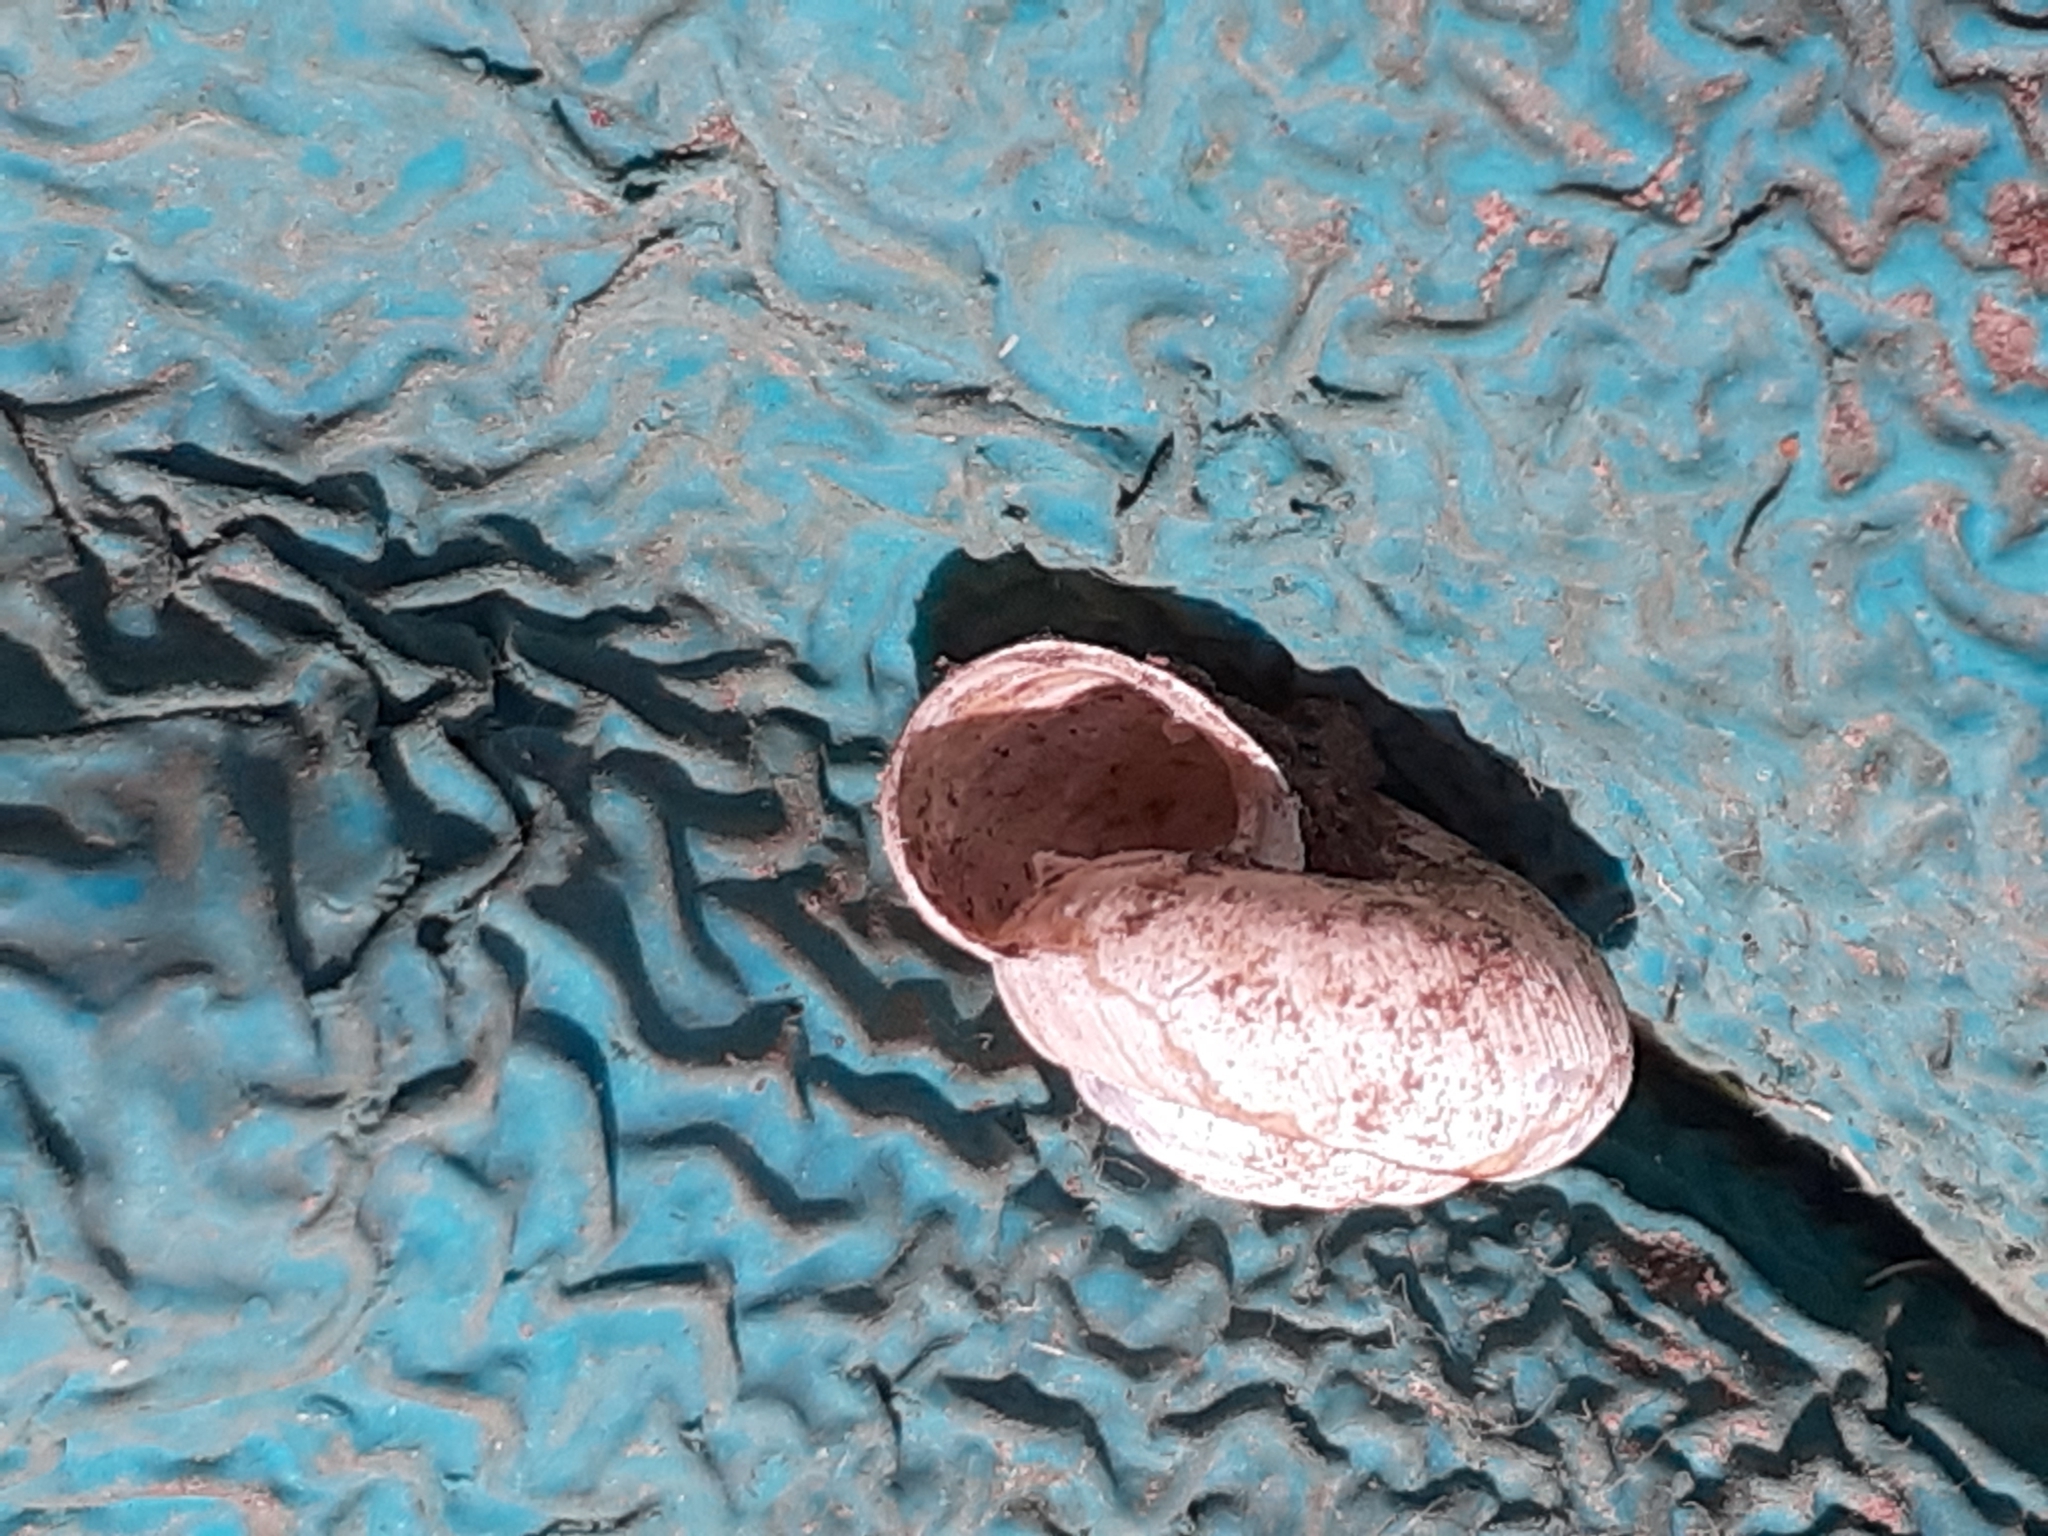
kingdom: Animalia
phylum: Mollusca
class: Gastropoda
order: Stylommatophora
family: Hygromiidae
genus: Trochulus
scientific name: Trochulus striolatus
